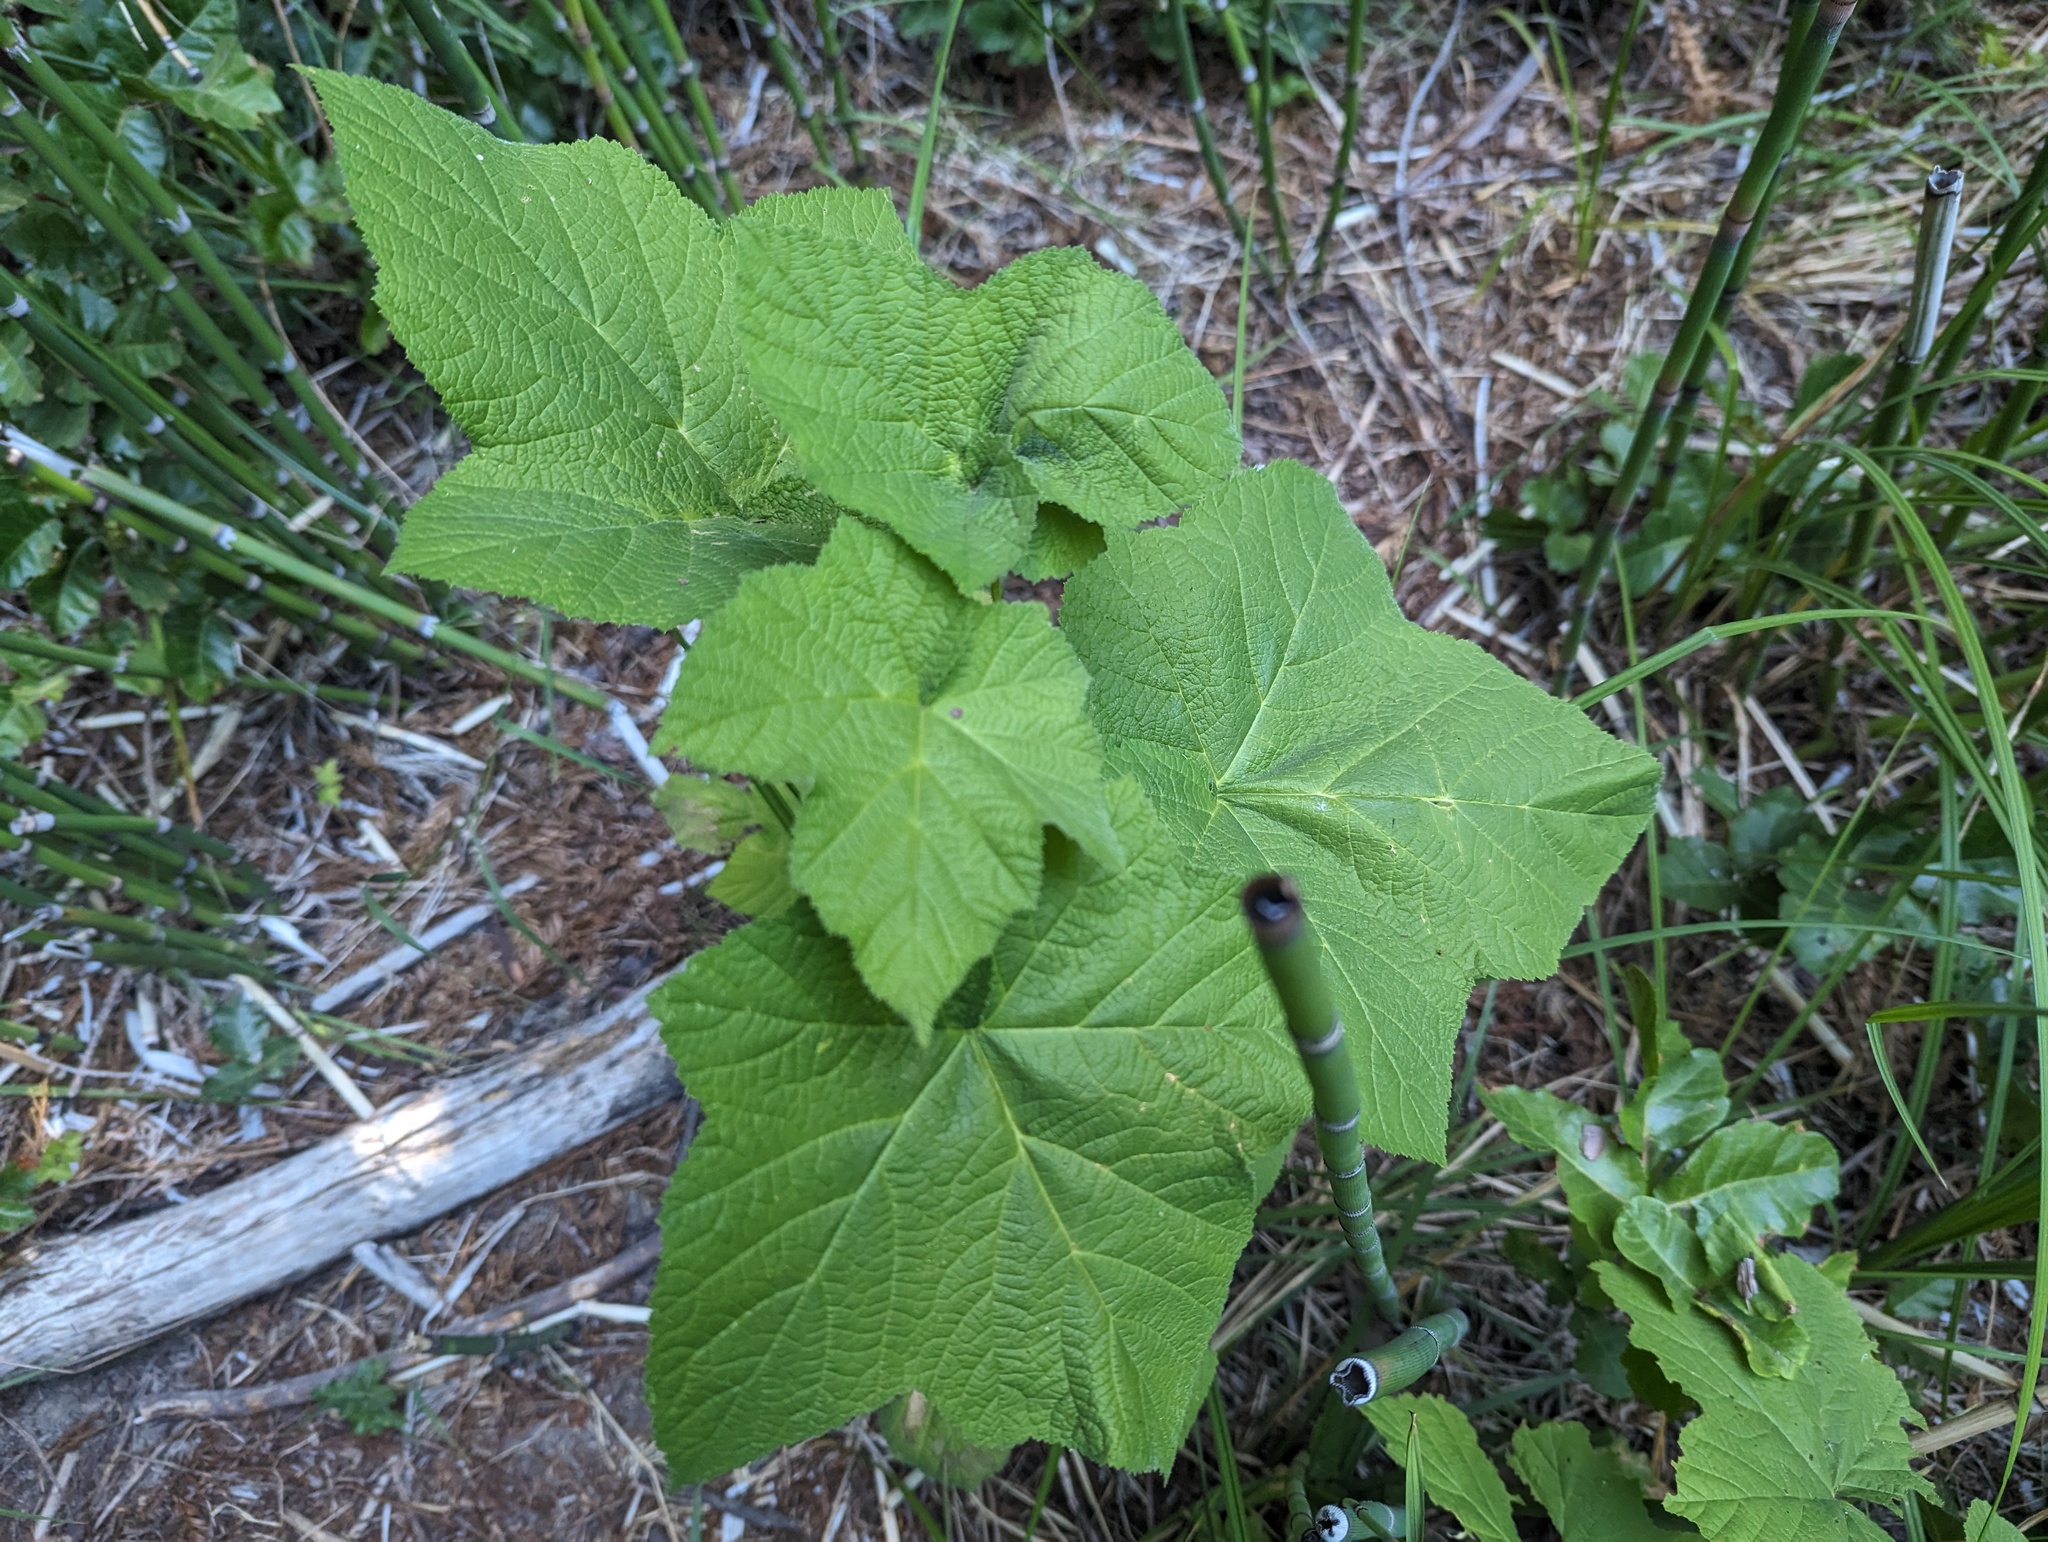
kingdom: Plantae
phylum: Tracheophyta
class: Magnoliopsida
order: Rosales
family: Rosaceae
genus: Rubus
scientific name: Rubus parviflorus
